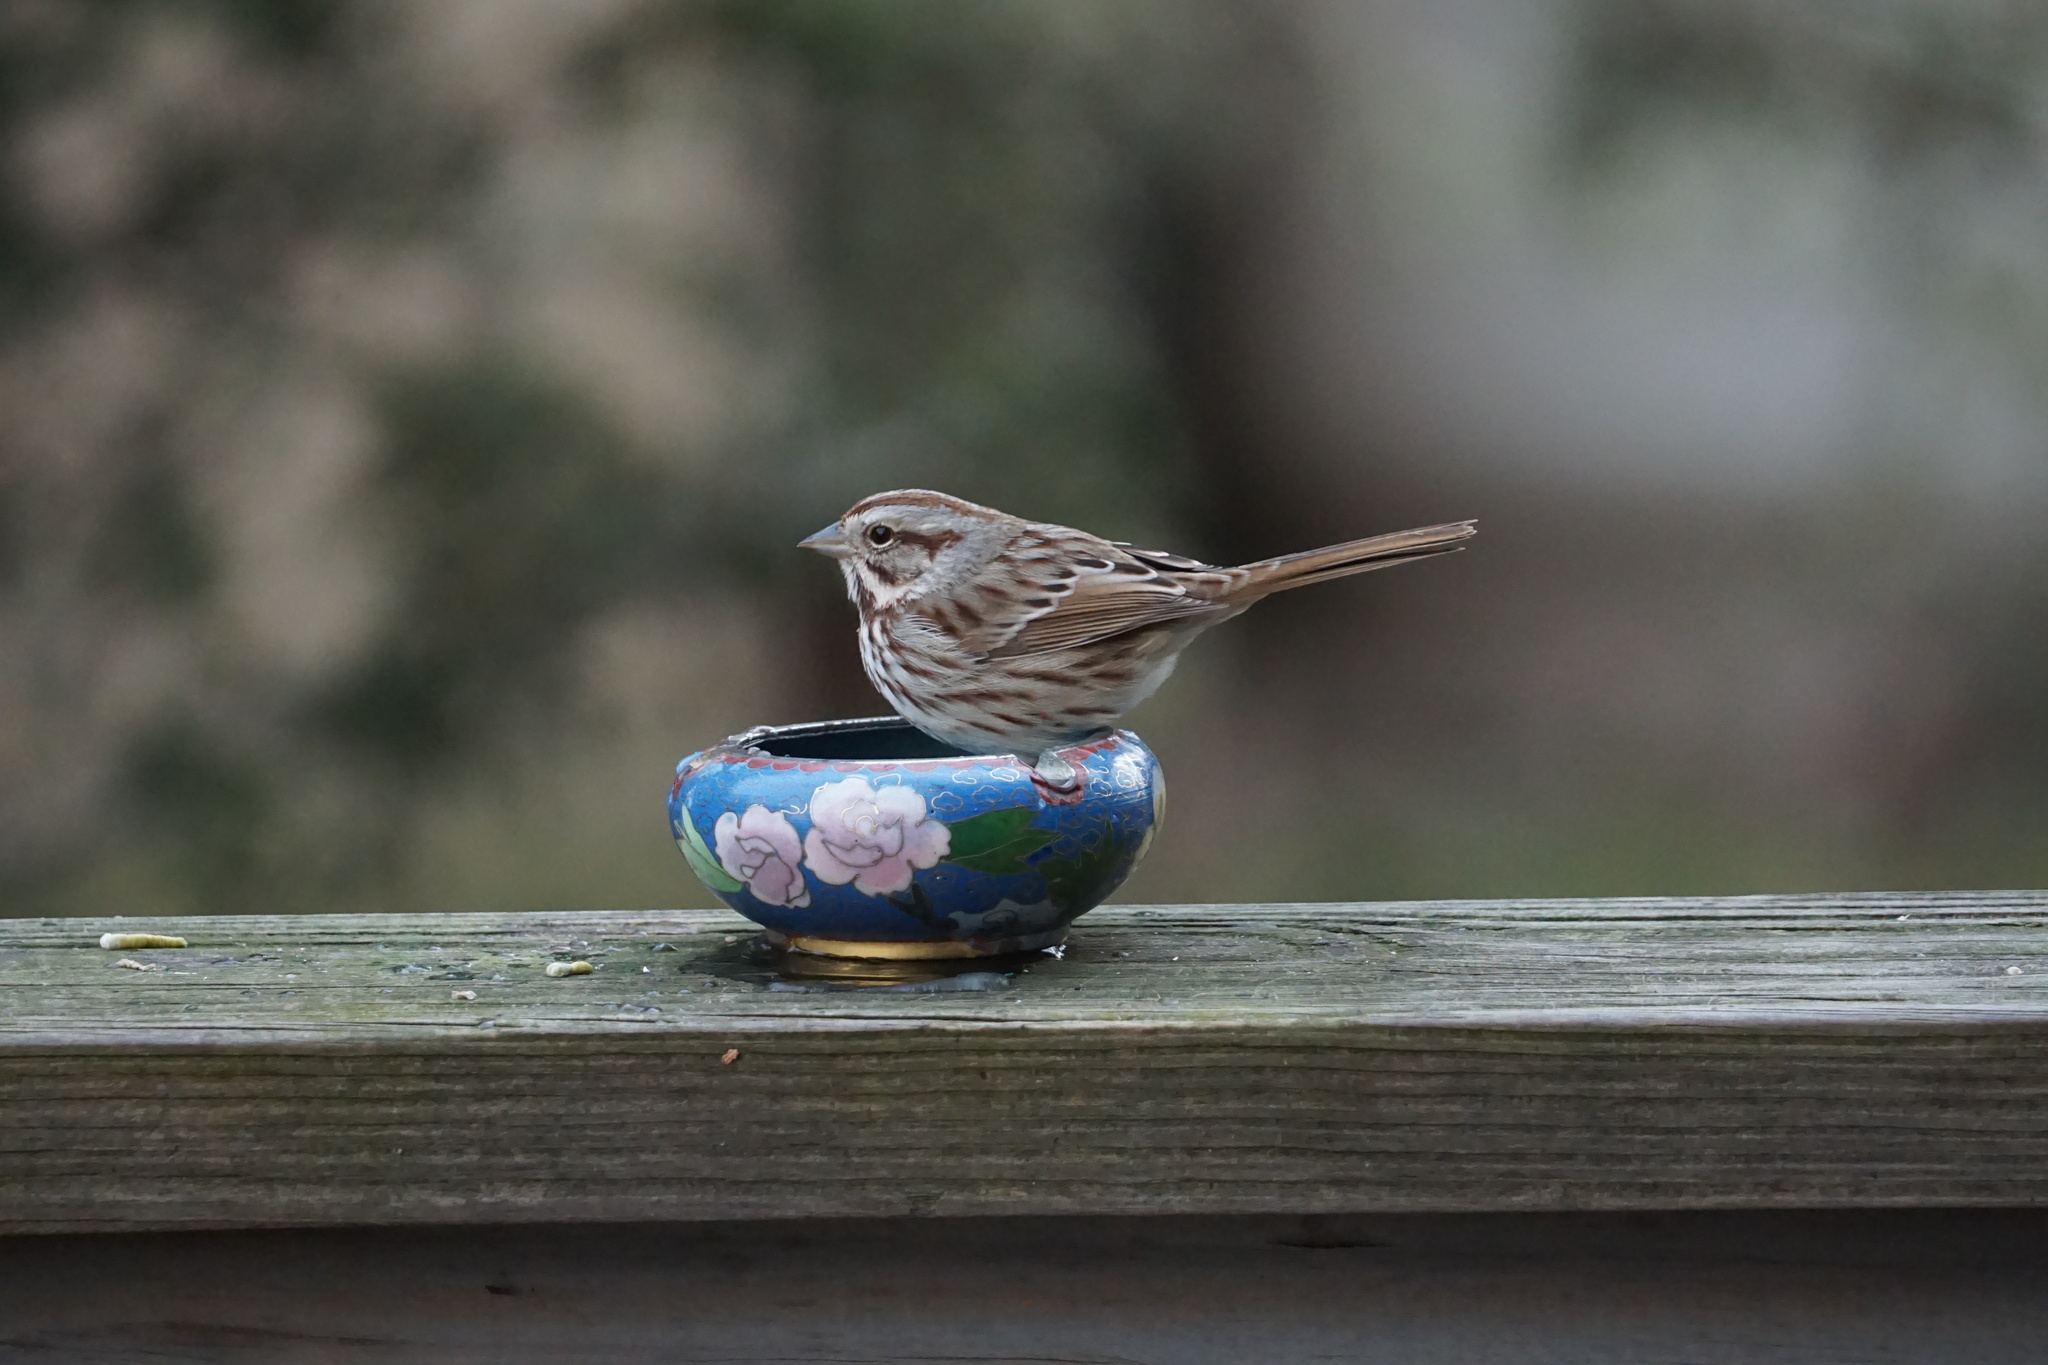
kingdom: Animalia
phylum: Chordata
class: Aves
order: Passeriformes
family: Passerellidae
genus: Melospiza
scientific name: Melospiza melodia
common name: Song sparrow
